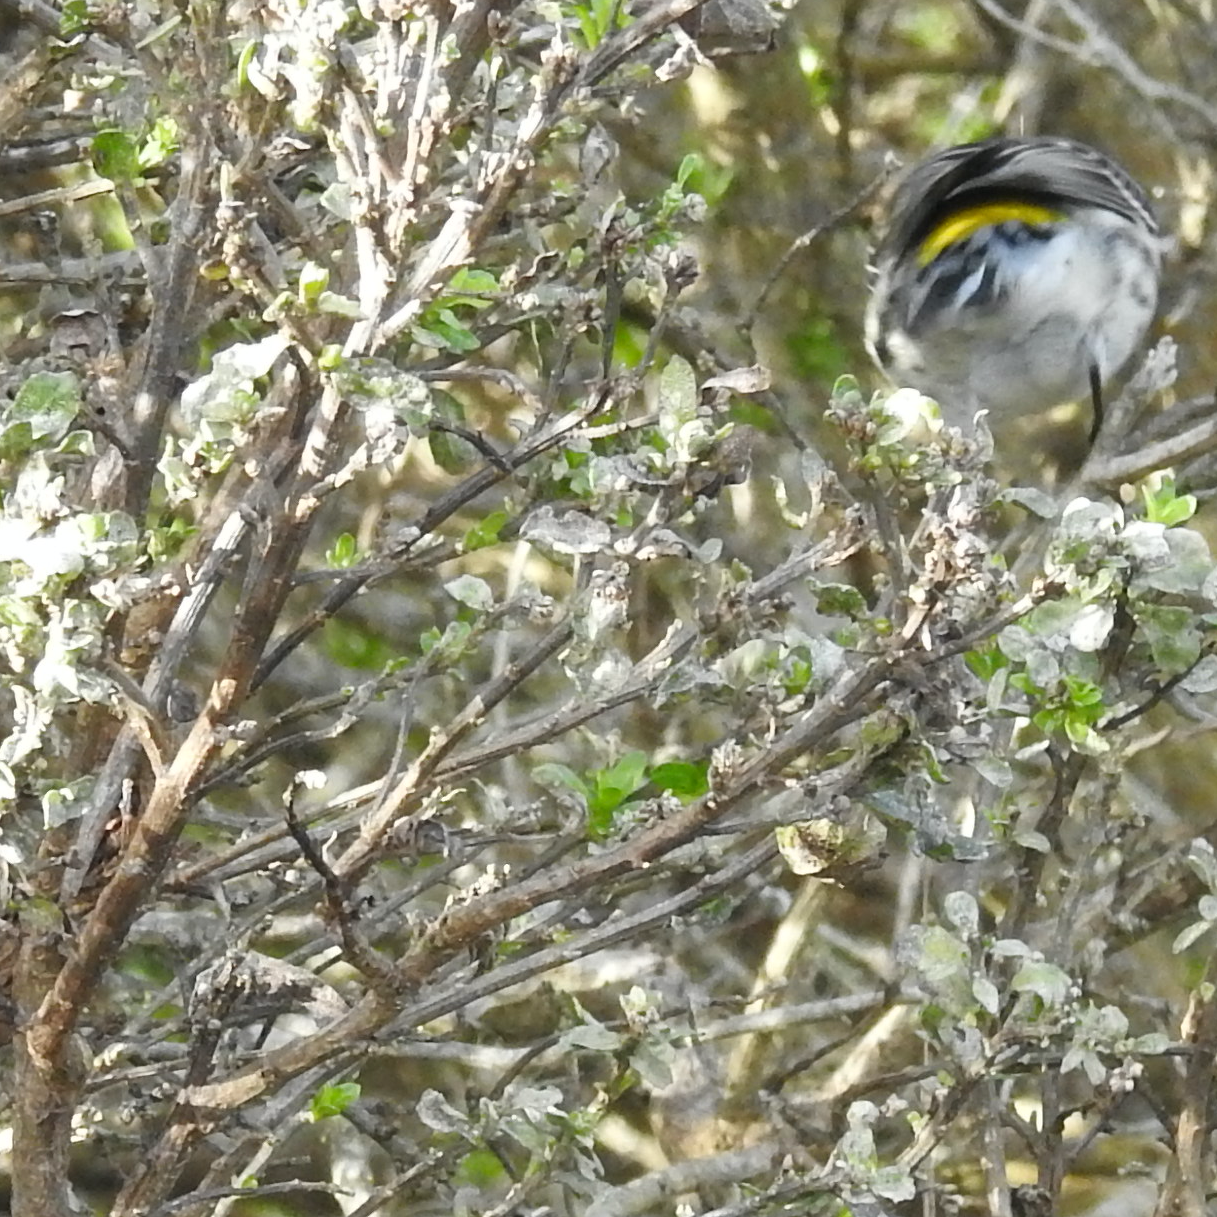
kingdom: Animalia
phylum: Chordata
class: Aves
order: Passeriformes
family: Parulidae
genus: Setophaga
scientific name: Setophaga coronata
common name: Myrtle warbler
